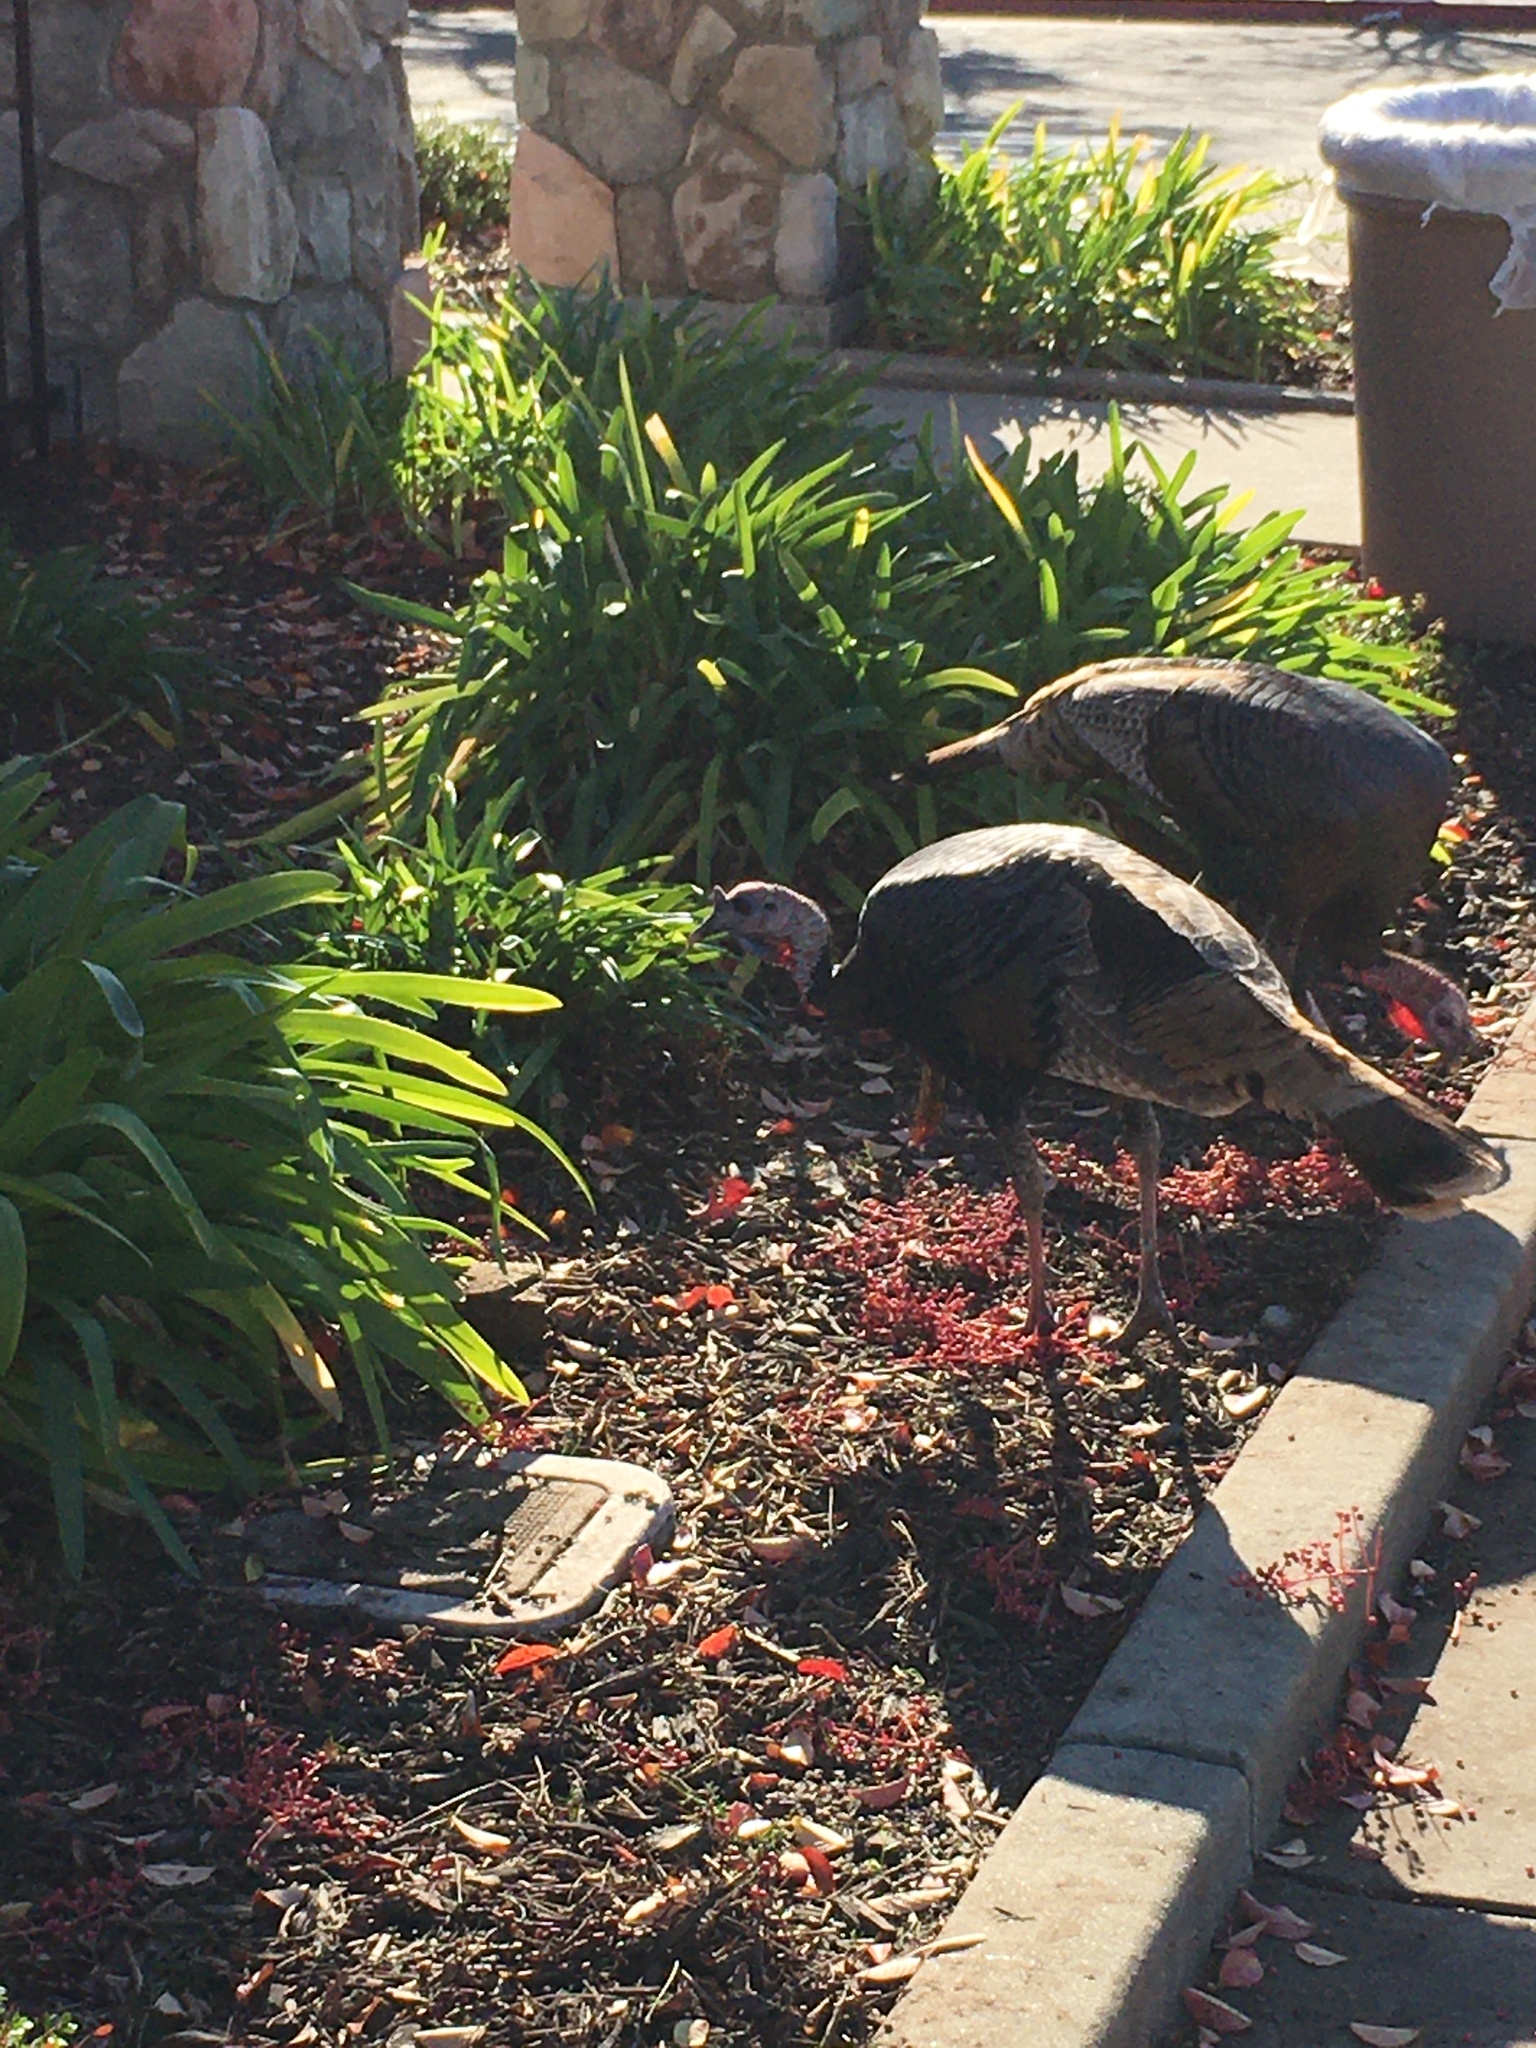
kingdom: Animalia
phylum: Chordata
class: Aves
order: Galliformes
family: Phasianidae
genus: Meleagris
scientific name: Meleagris gallopavo
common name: Wild turkey
